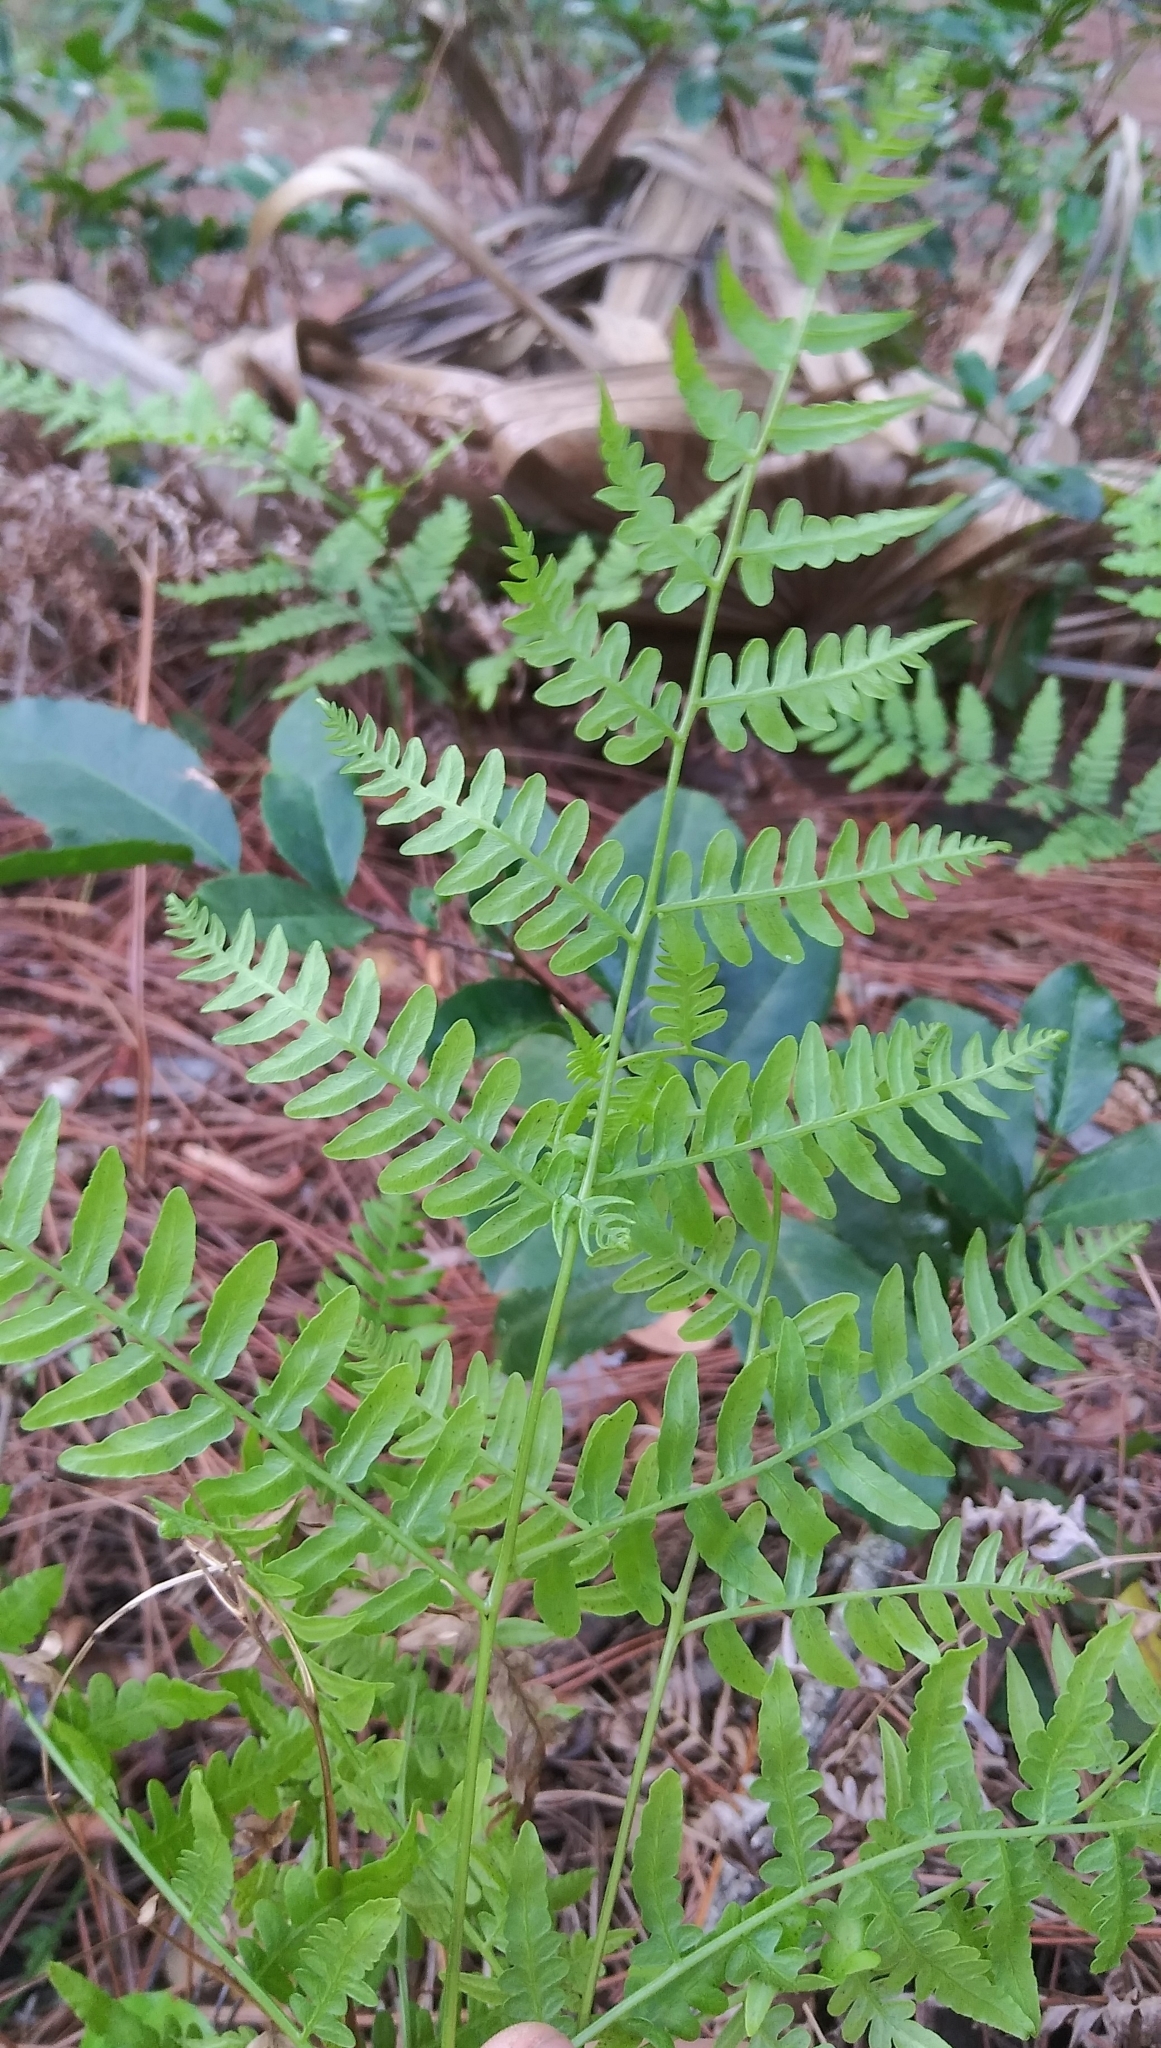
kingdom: Plantae
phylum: Tracheophyta
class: Polypodiopsida
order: Polypodiales
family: Dennstaedtiaceae
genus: Pteridium
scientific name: Pteridium aquilinum
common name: Bracken
